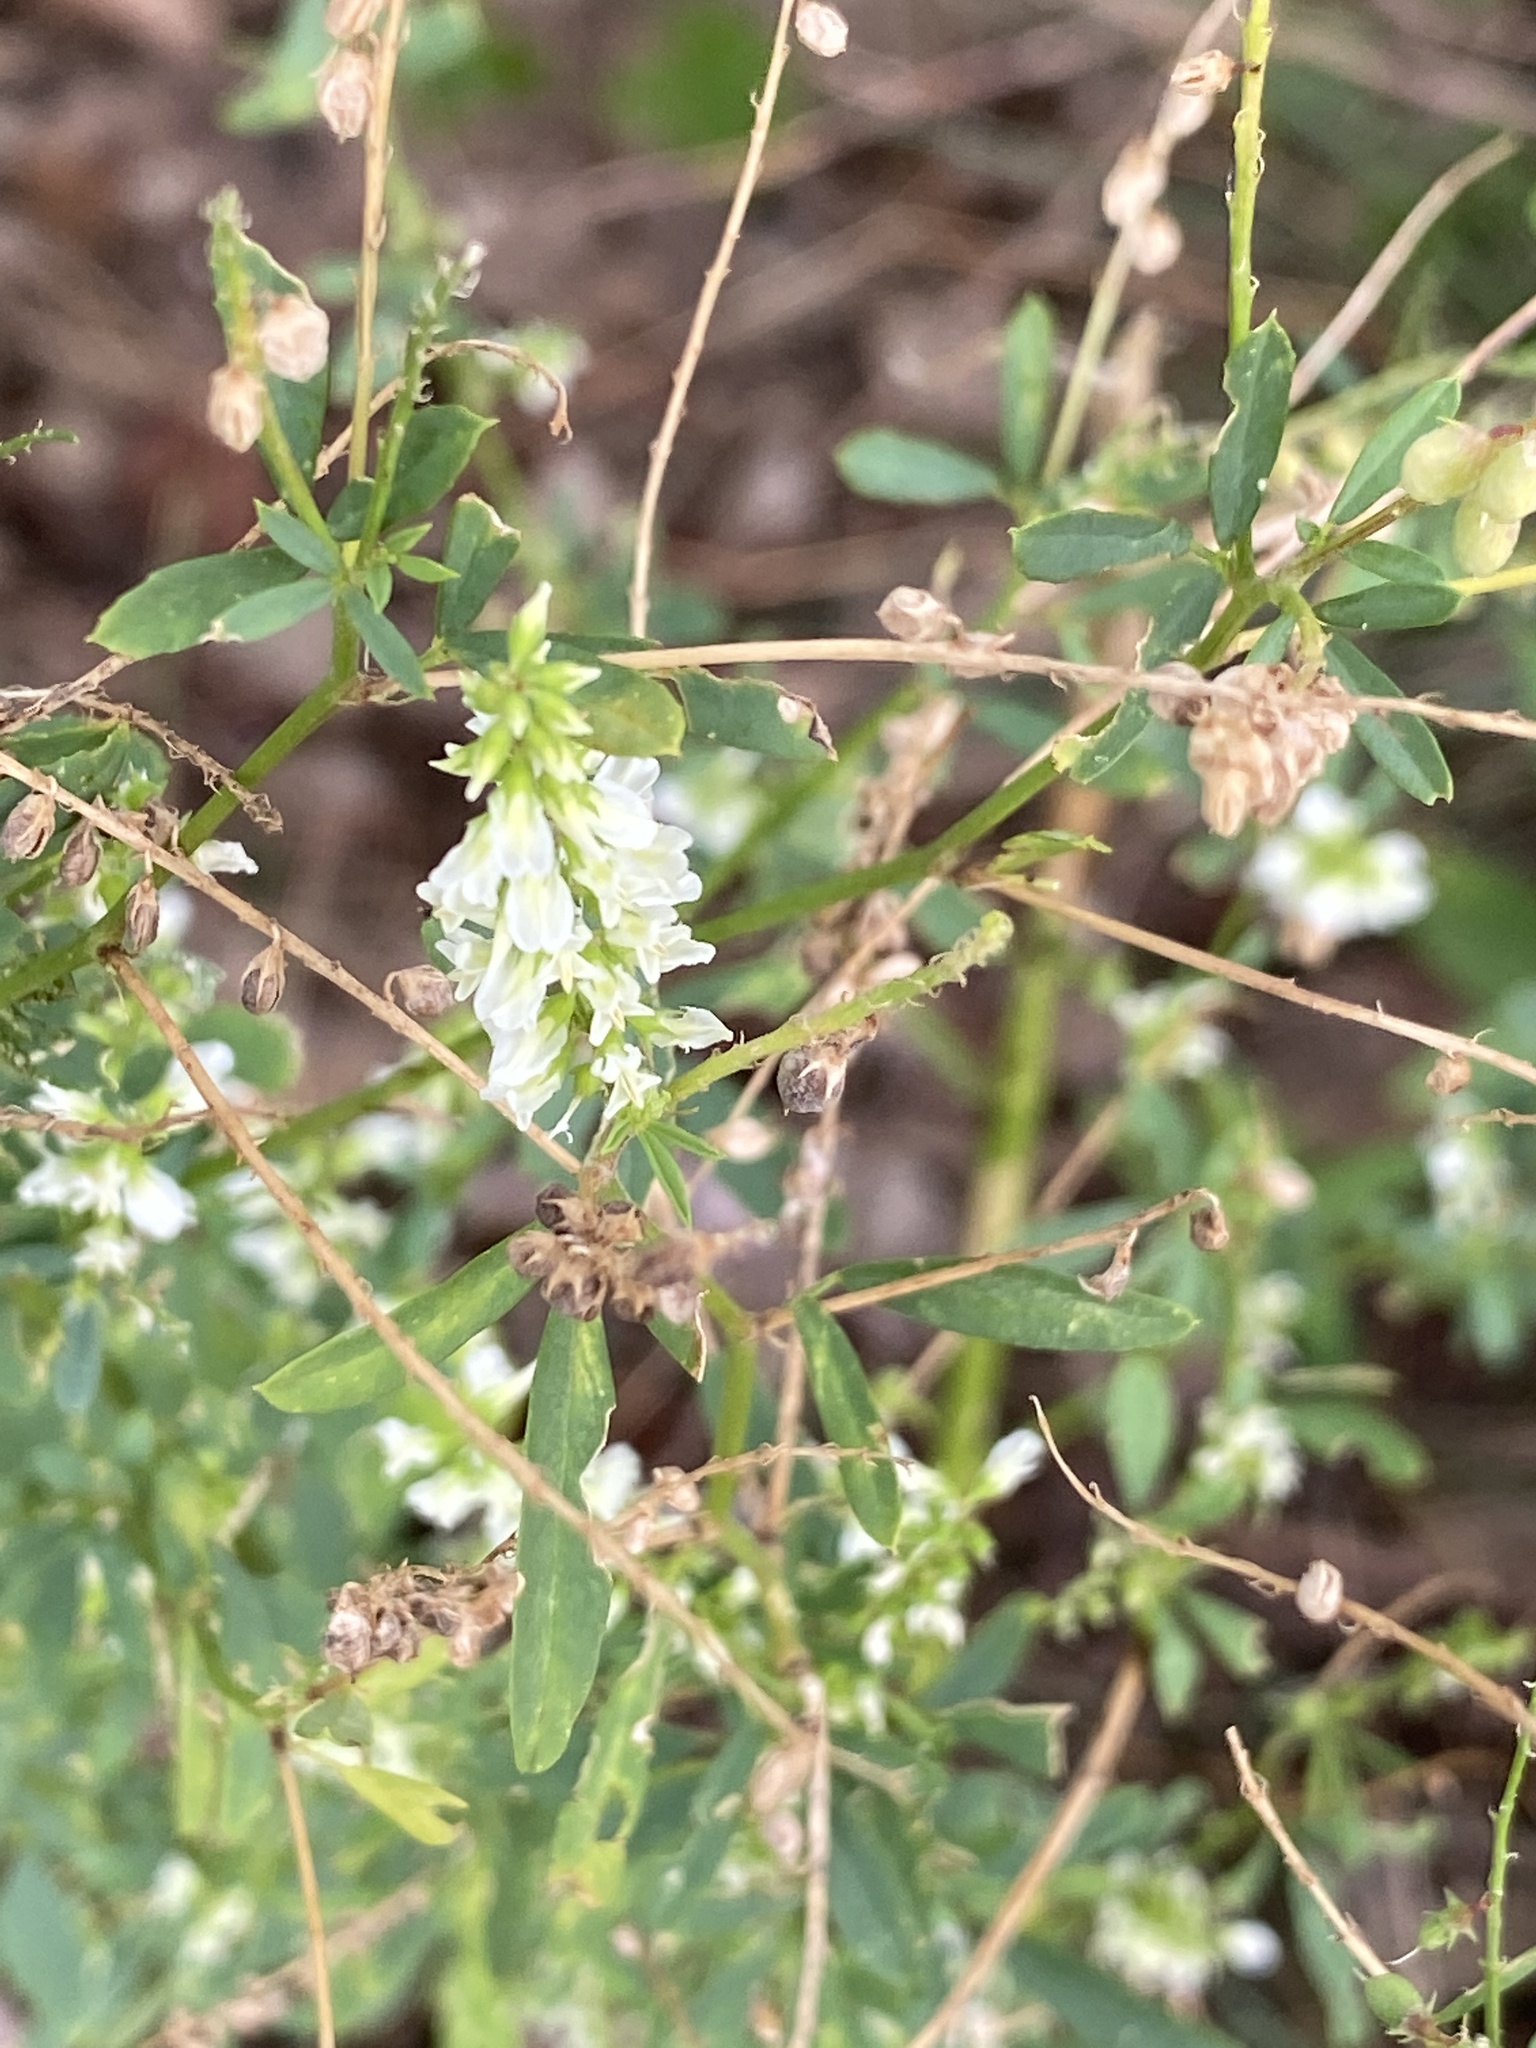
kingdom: Plantae
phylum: Tracheophyta
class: Magnoliopsida
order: Fabales
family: Fabaceae
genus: Melilotus
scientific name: Melilotus albus
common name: White melilot
